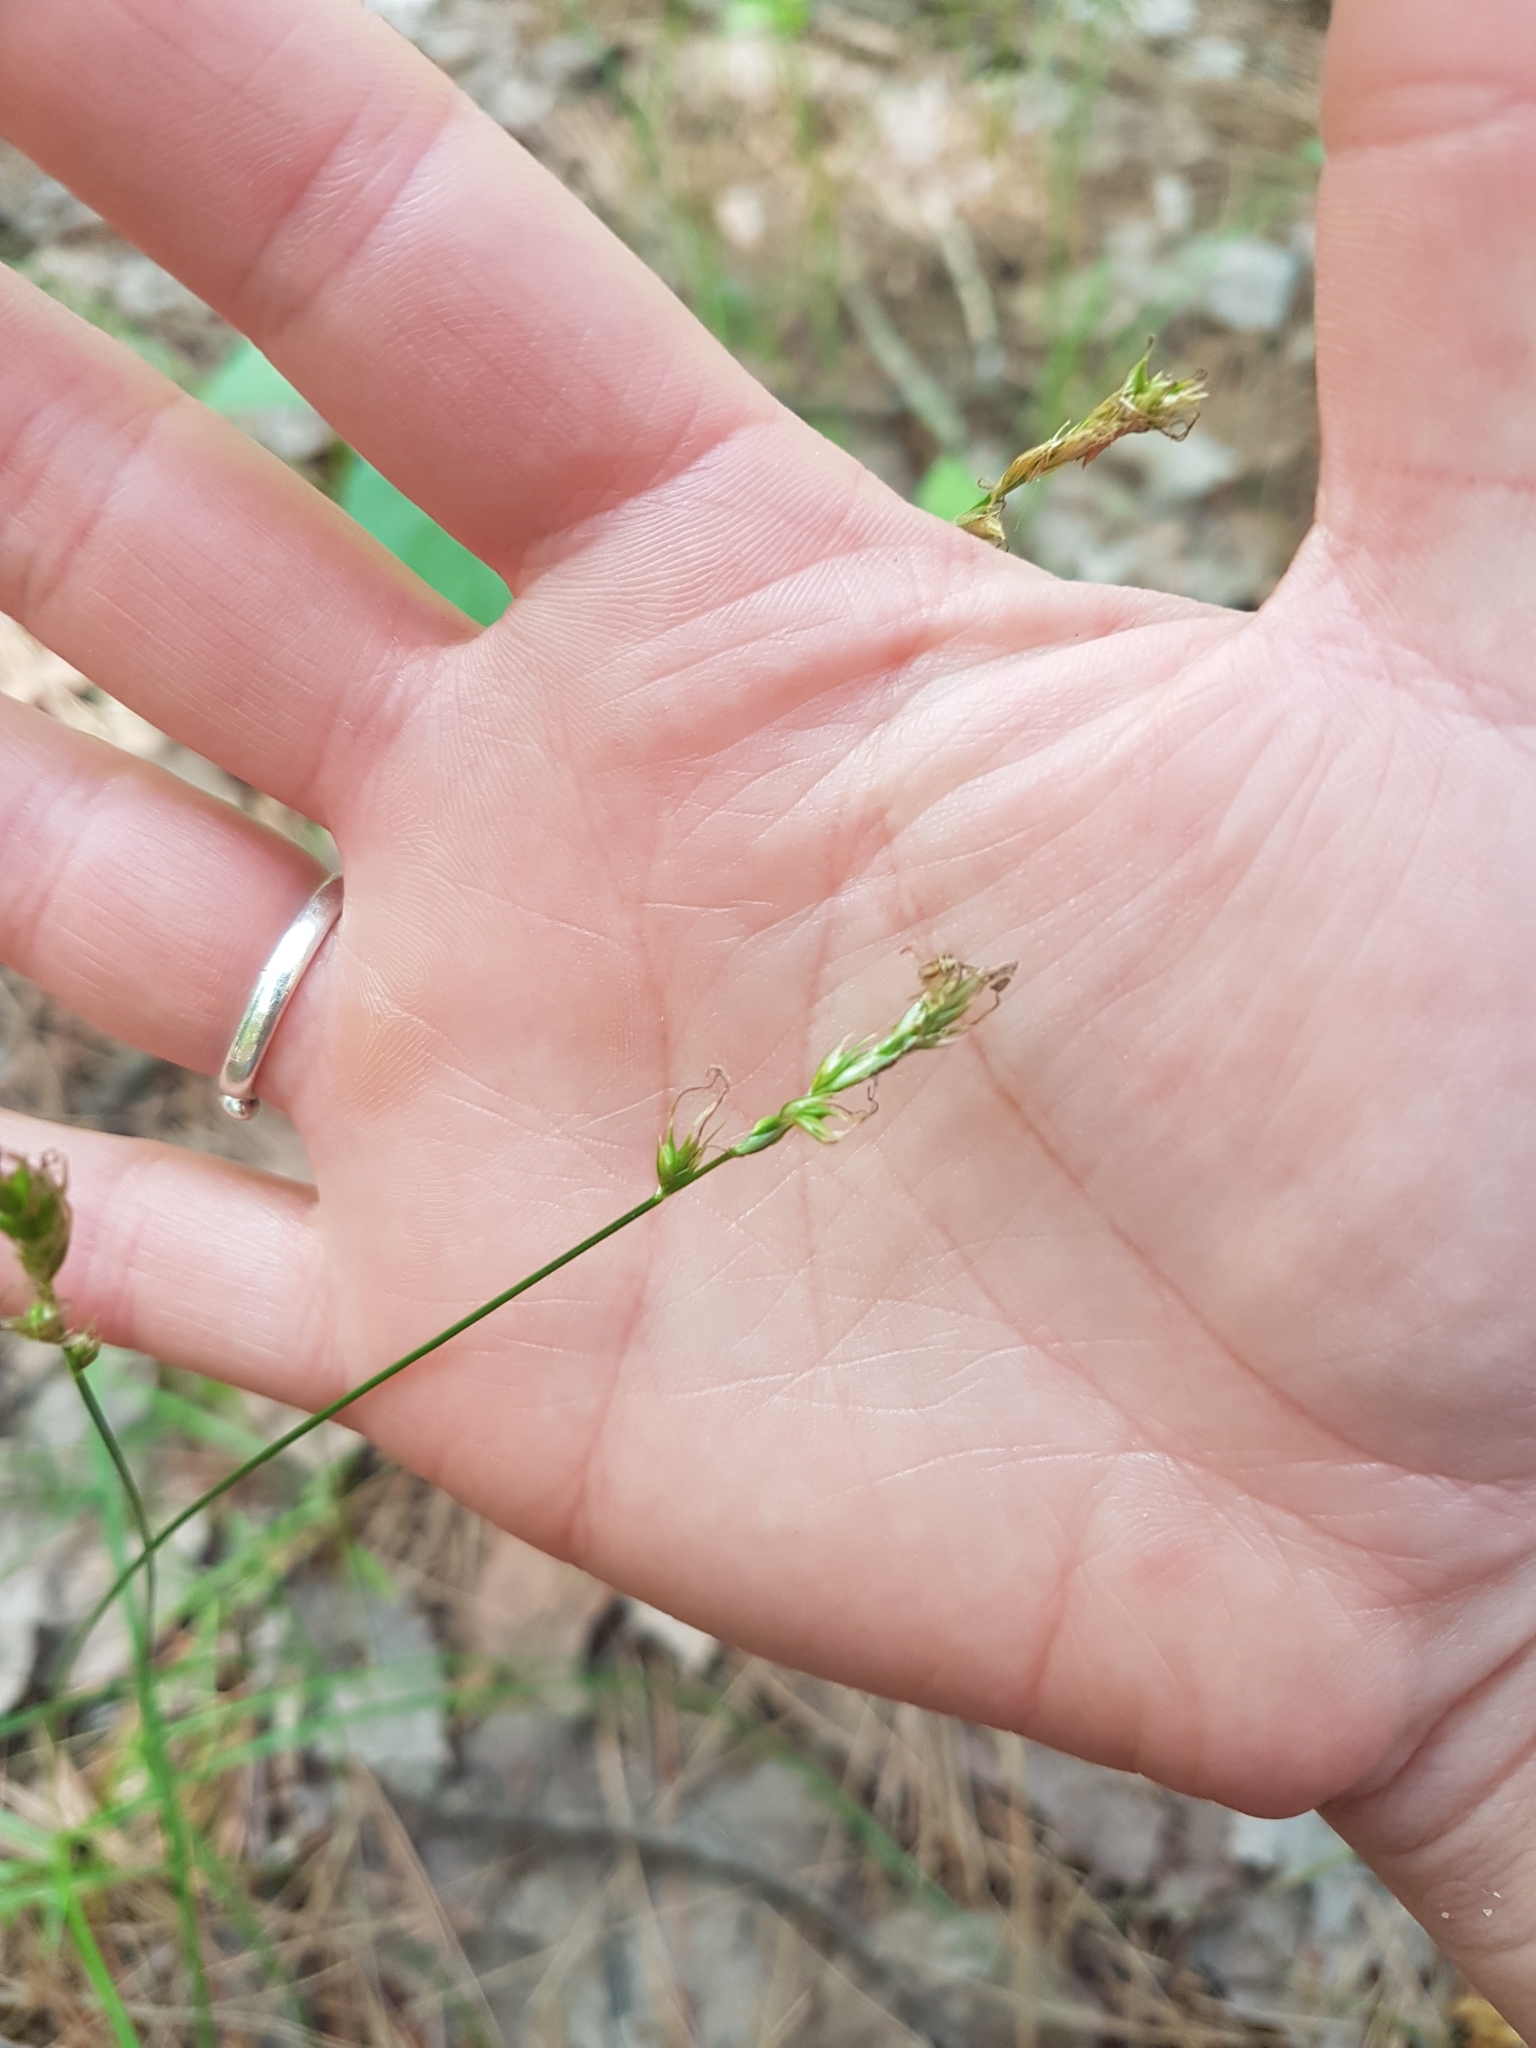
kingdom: Plantae
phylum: Tracheophyta
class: Liliopsida
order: Poales
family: Cyperaceae
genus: Carex
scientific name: Carex siccata
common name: Dry sedge
